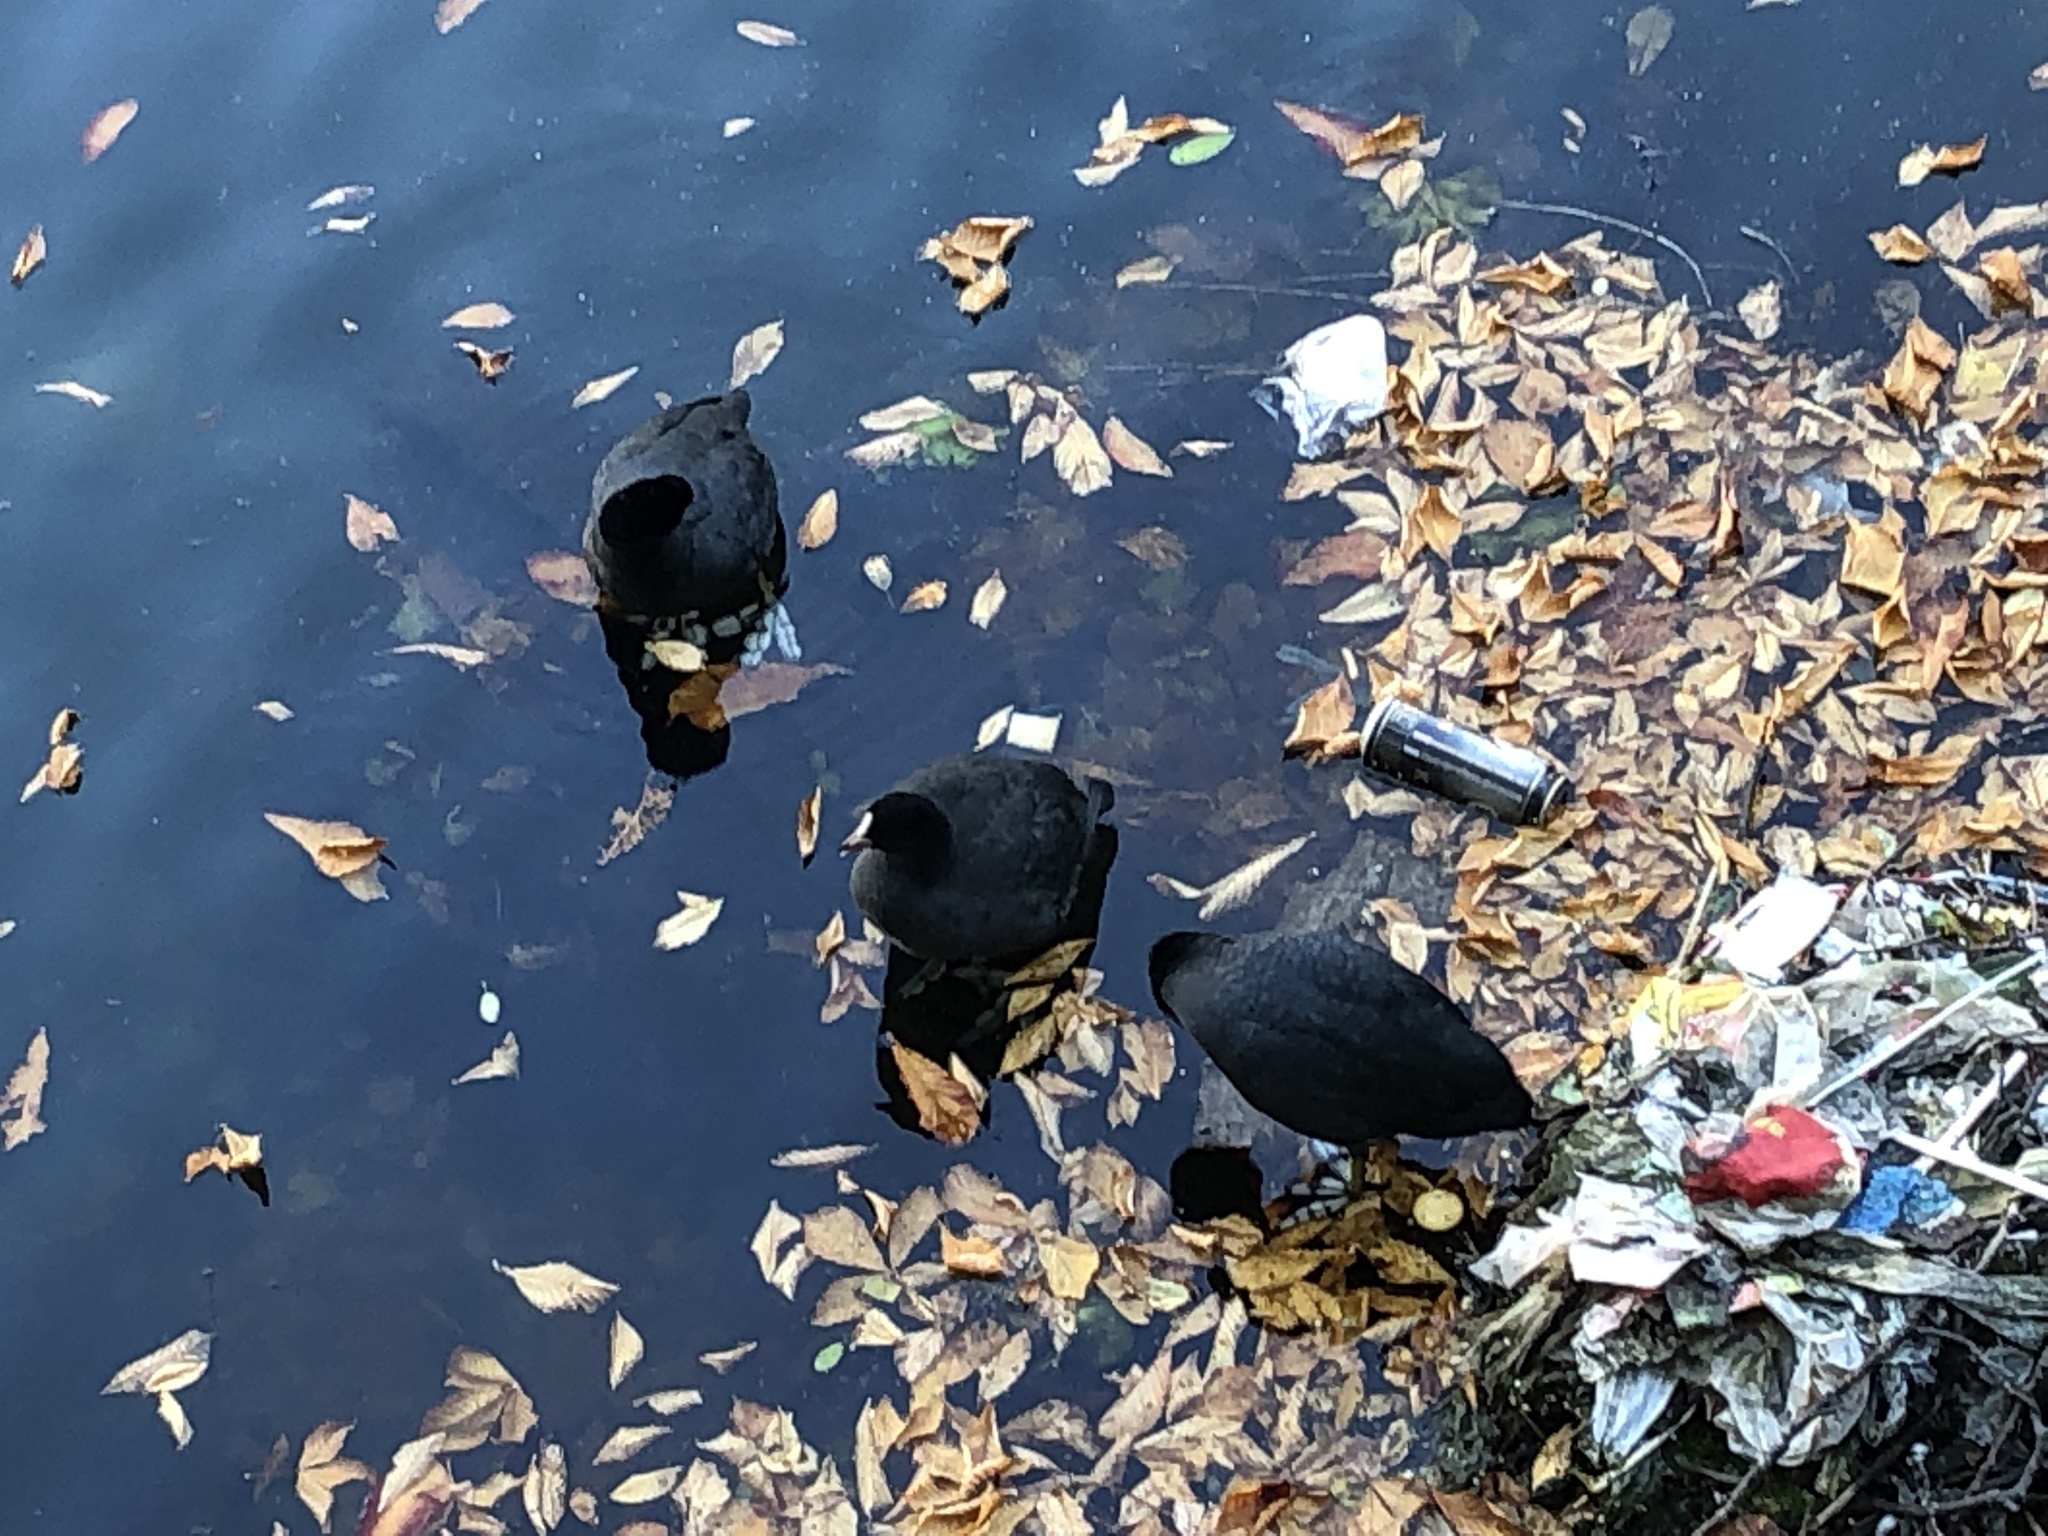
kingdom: Animalia
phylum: Chordata
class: Aves
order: Gruiformes
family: Rallidae
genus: Fulica
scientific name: Fulica atra
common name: Eurasian coot
